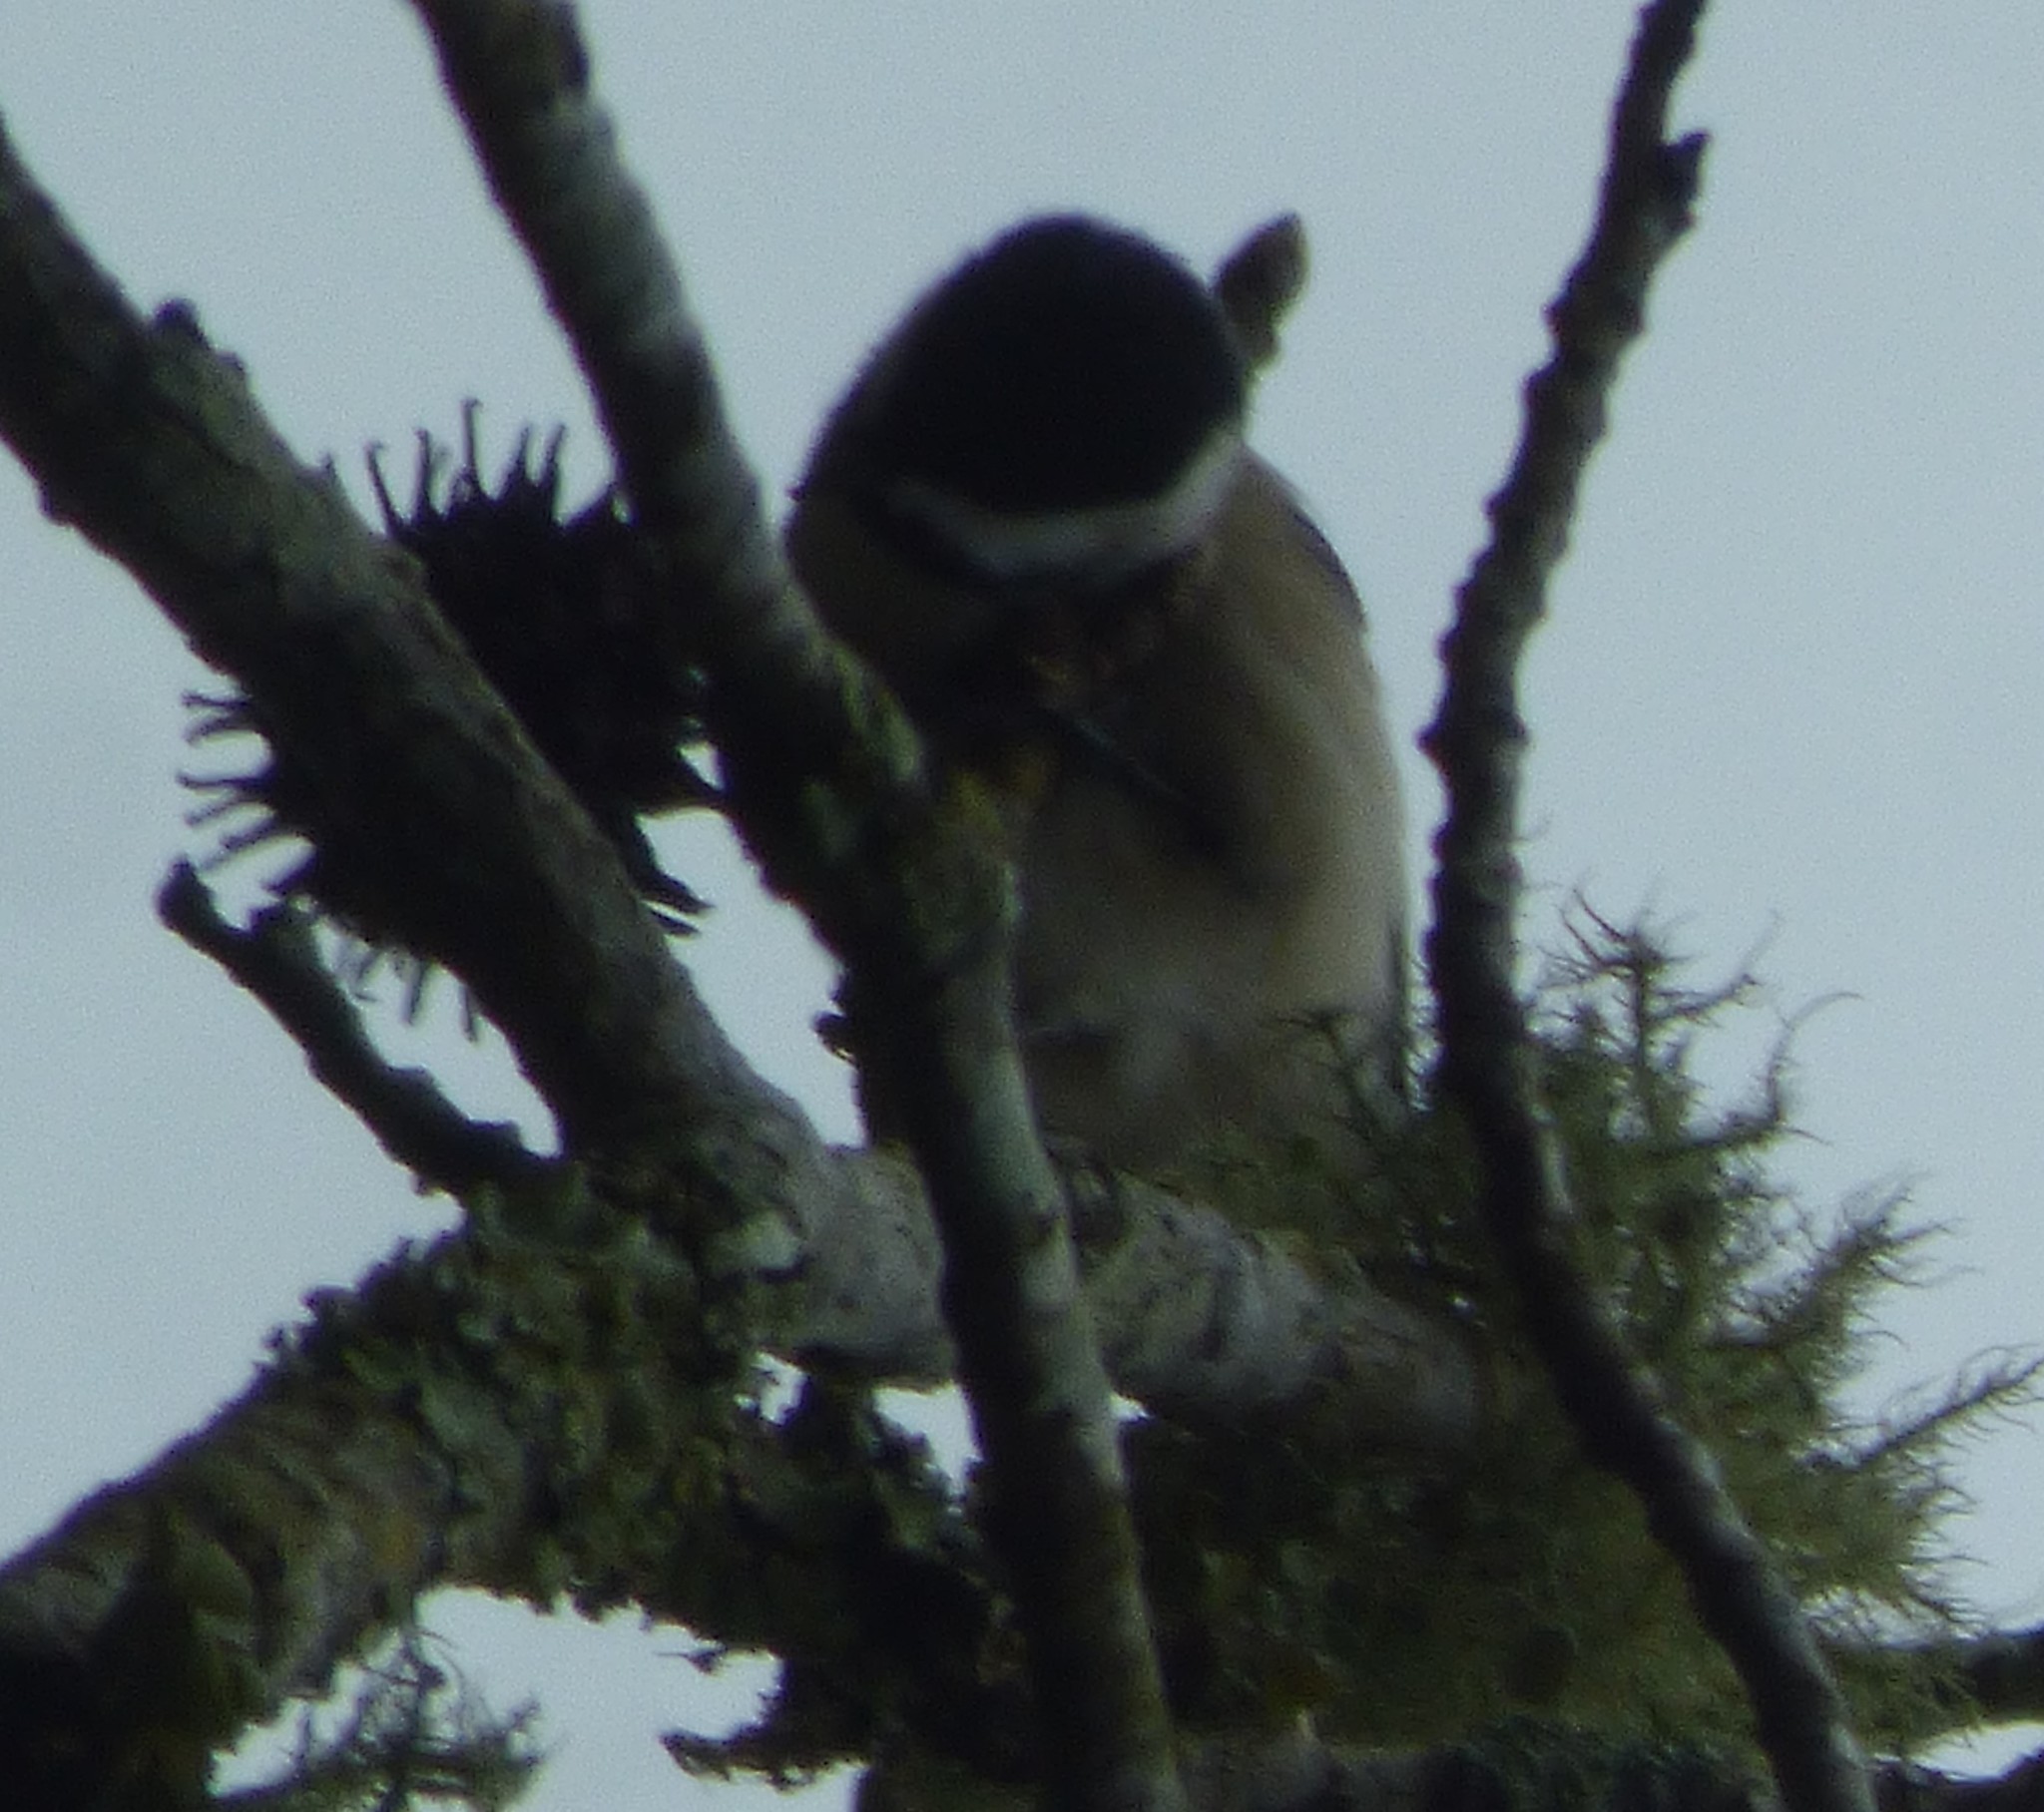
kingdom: Animalia
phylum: Chordata
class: Aves
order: Passeriformes
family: Paridae
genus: Poecile
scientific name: Poecile carolinensis
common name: Carolina chickadee
